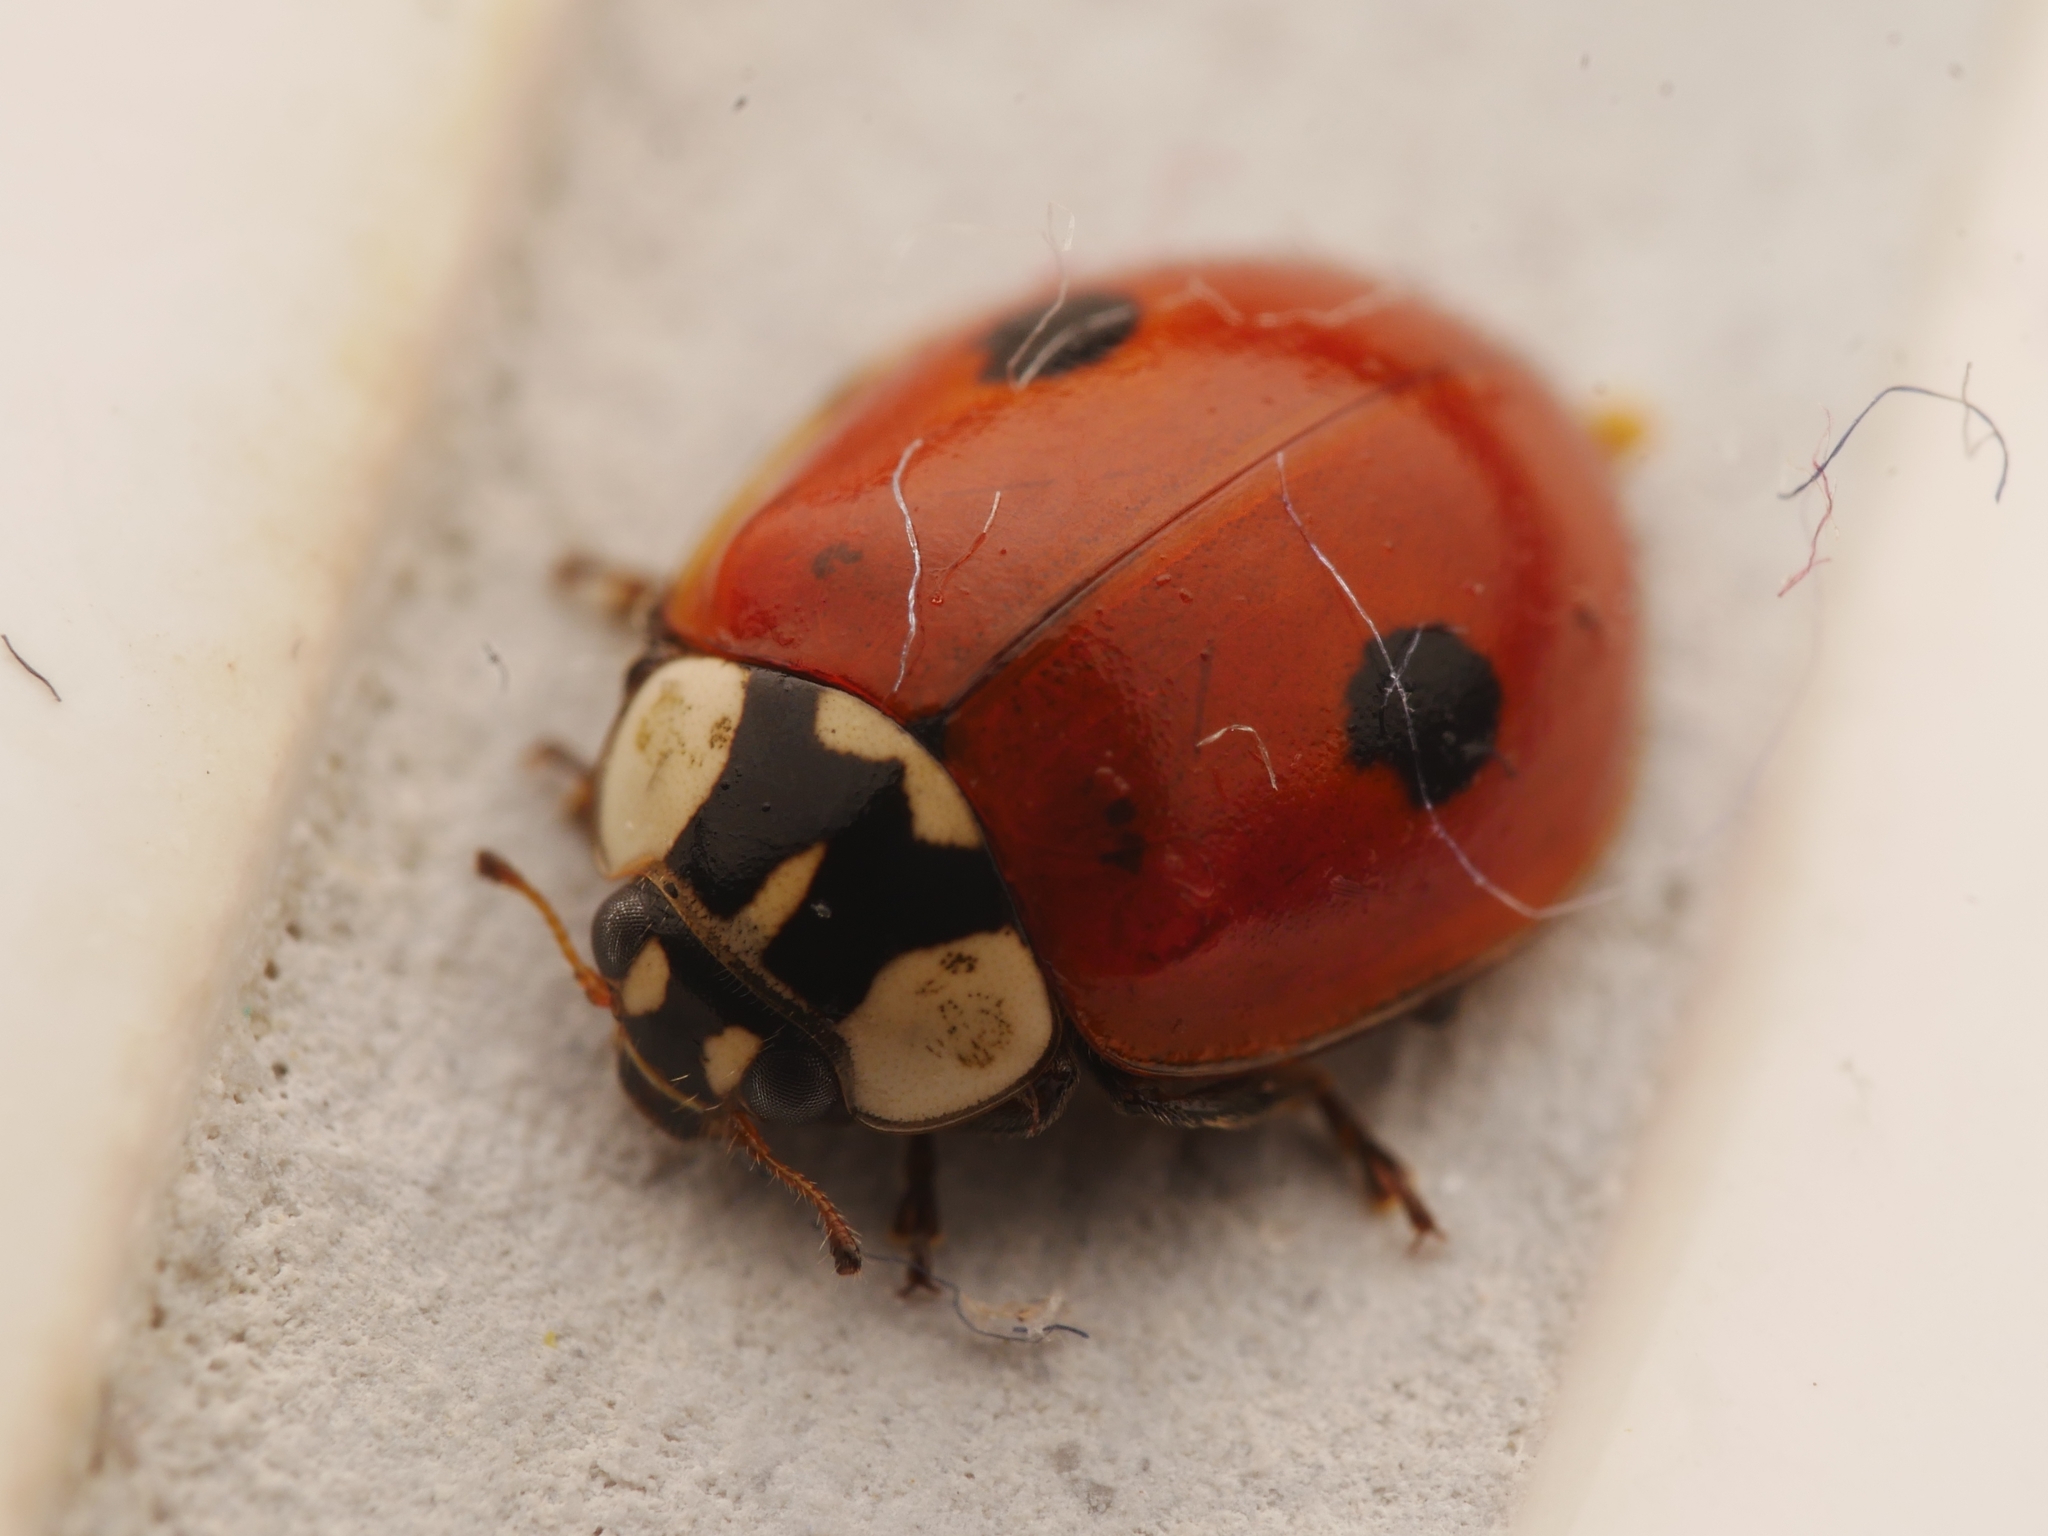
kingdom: Animalia
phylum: Arthropoda
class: Insecta
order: Coleoptera
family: Coccinellidae
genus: Adalia
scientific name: Adalia bipunctata
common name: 2-spot ladybird
